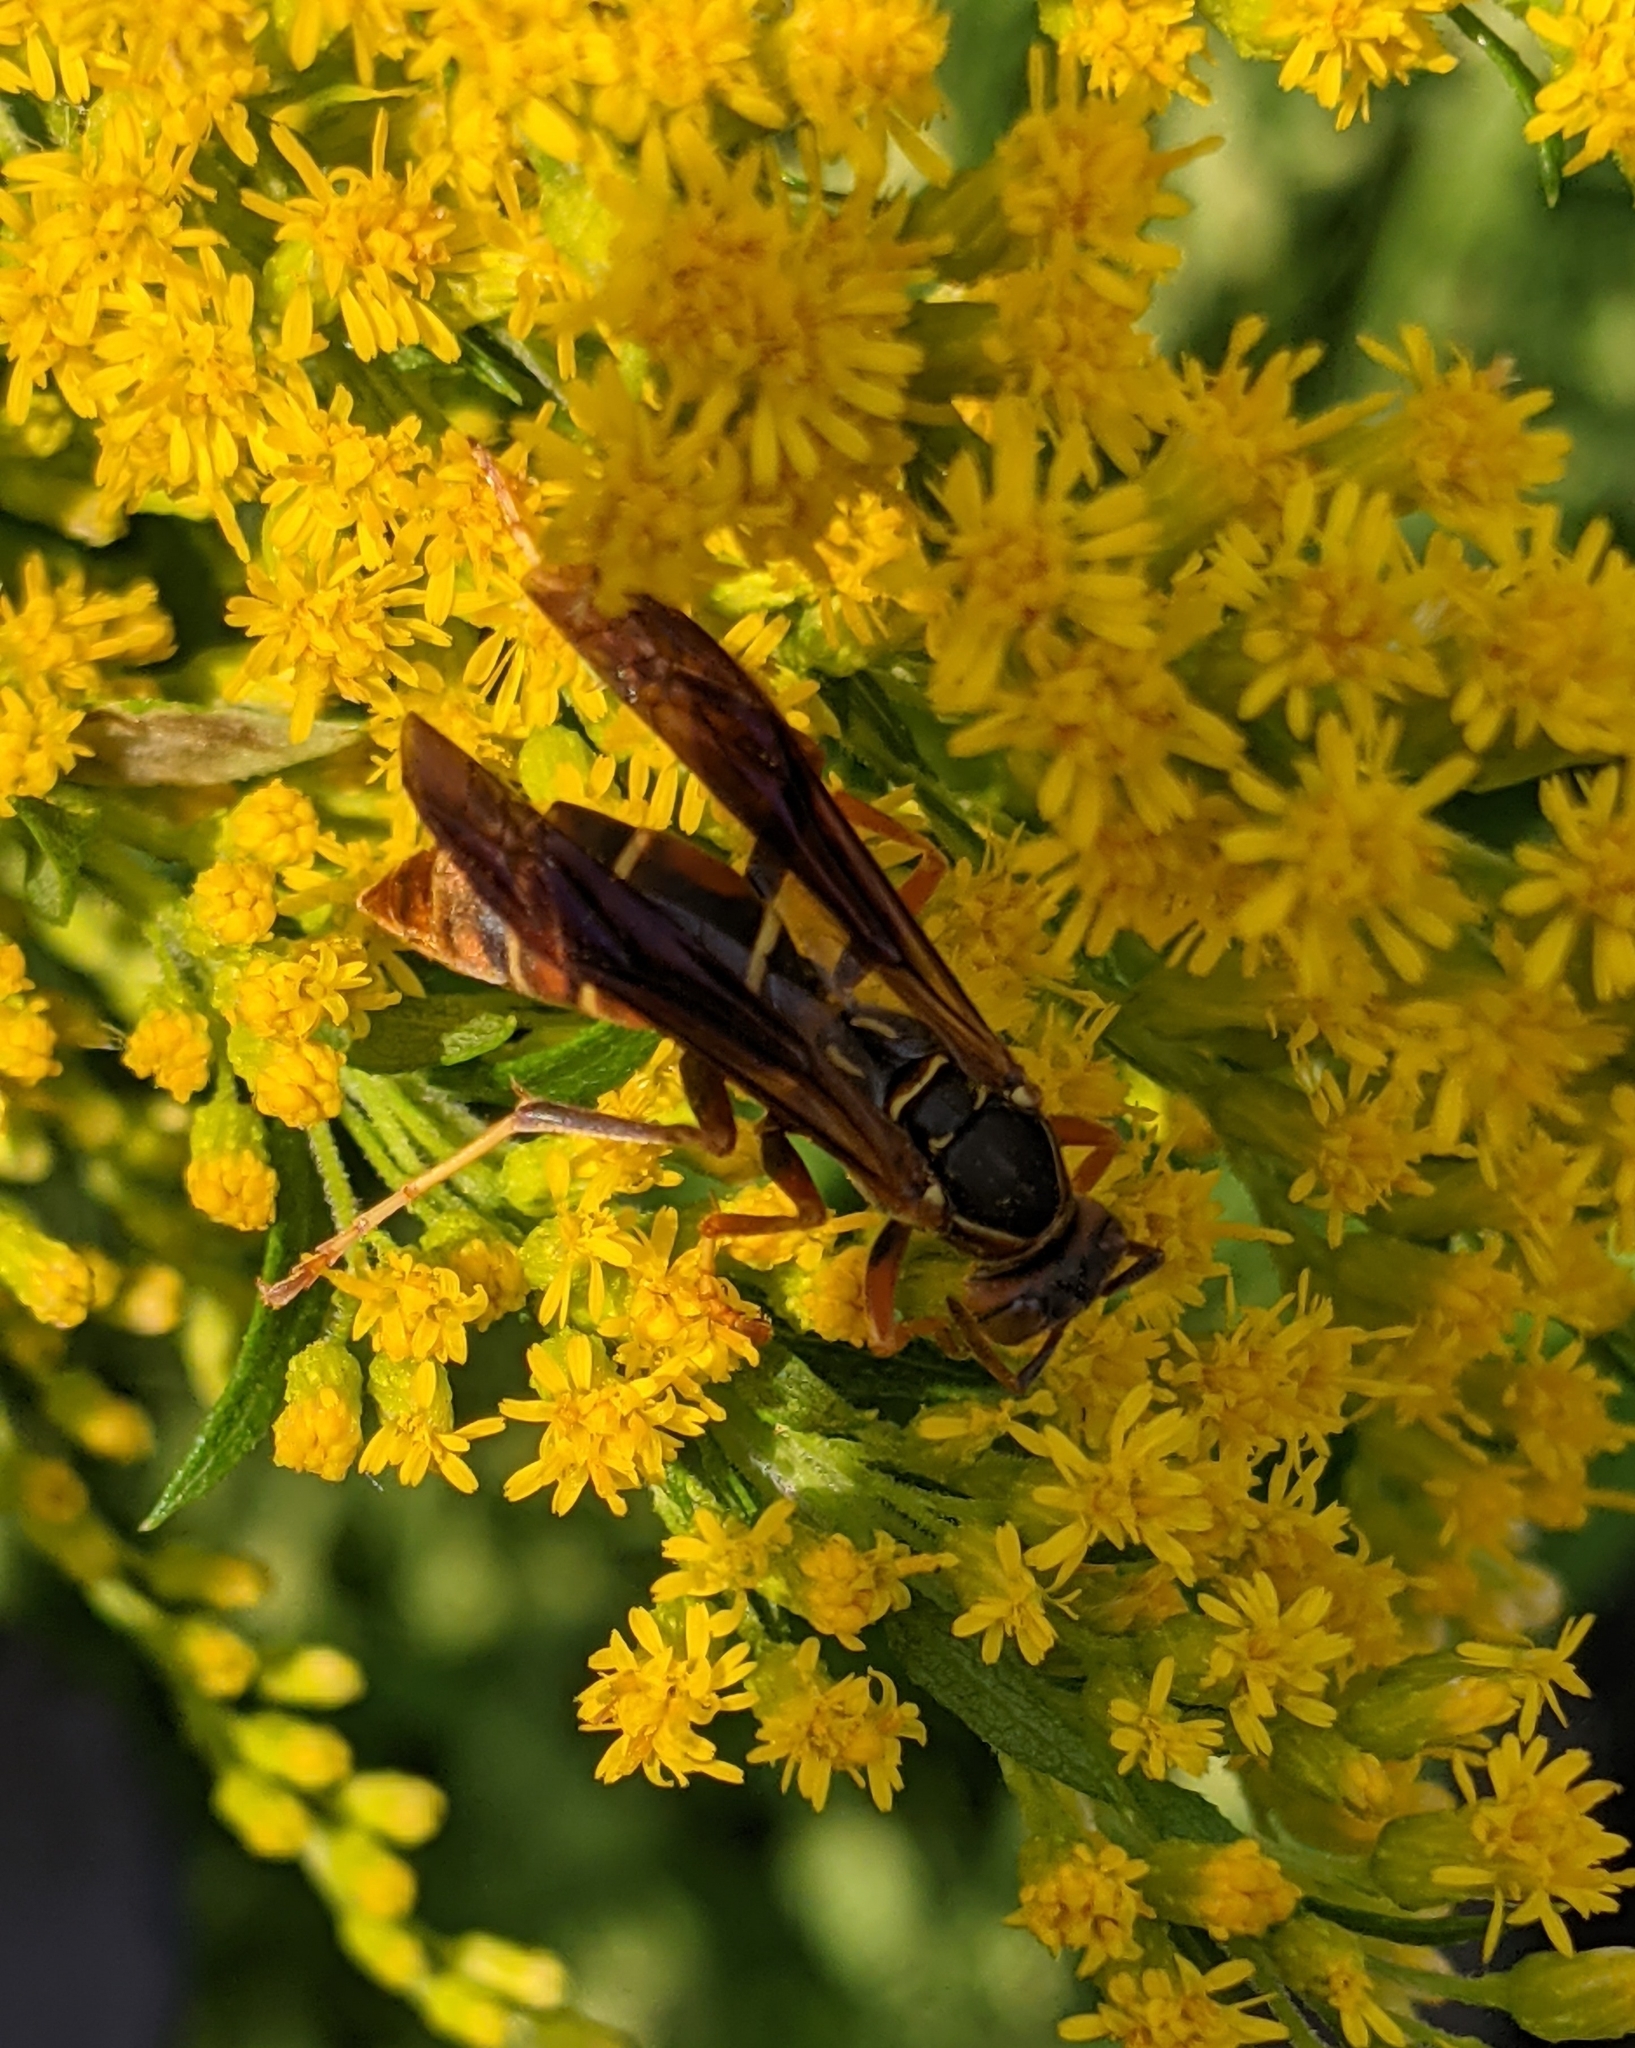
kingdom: Animalia
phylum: Arthropoda
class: Insecta
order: Hymenoptera
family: Eumenidae
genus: Polistes
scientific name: Polistes fuscatus
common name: Dark paper wasp
